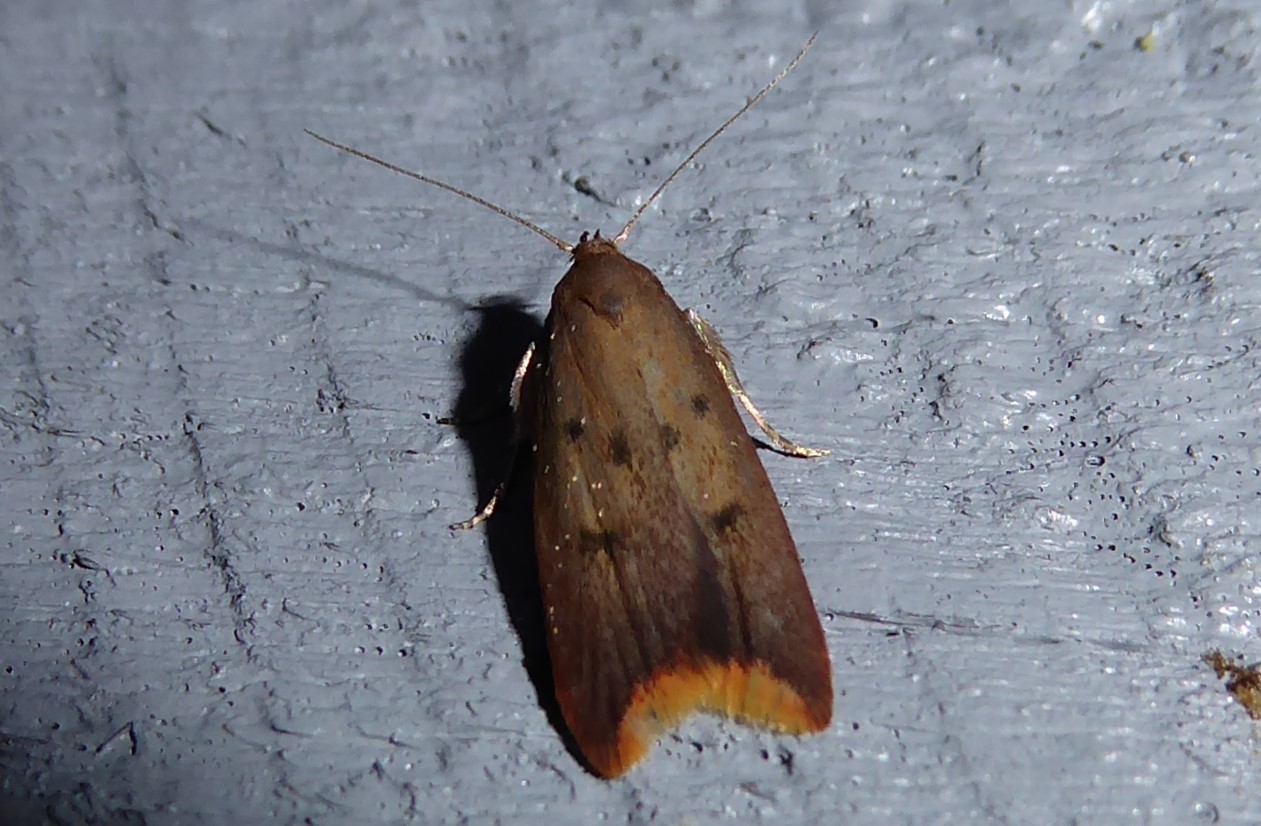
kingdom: Animalia
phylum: Arthropoda
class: Insecta
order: Lepidoptera
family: Oecophoridae
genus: Tachystola
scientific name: Tachystola acroxantha
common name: Ruddy streak
